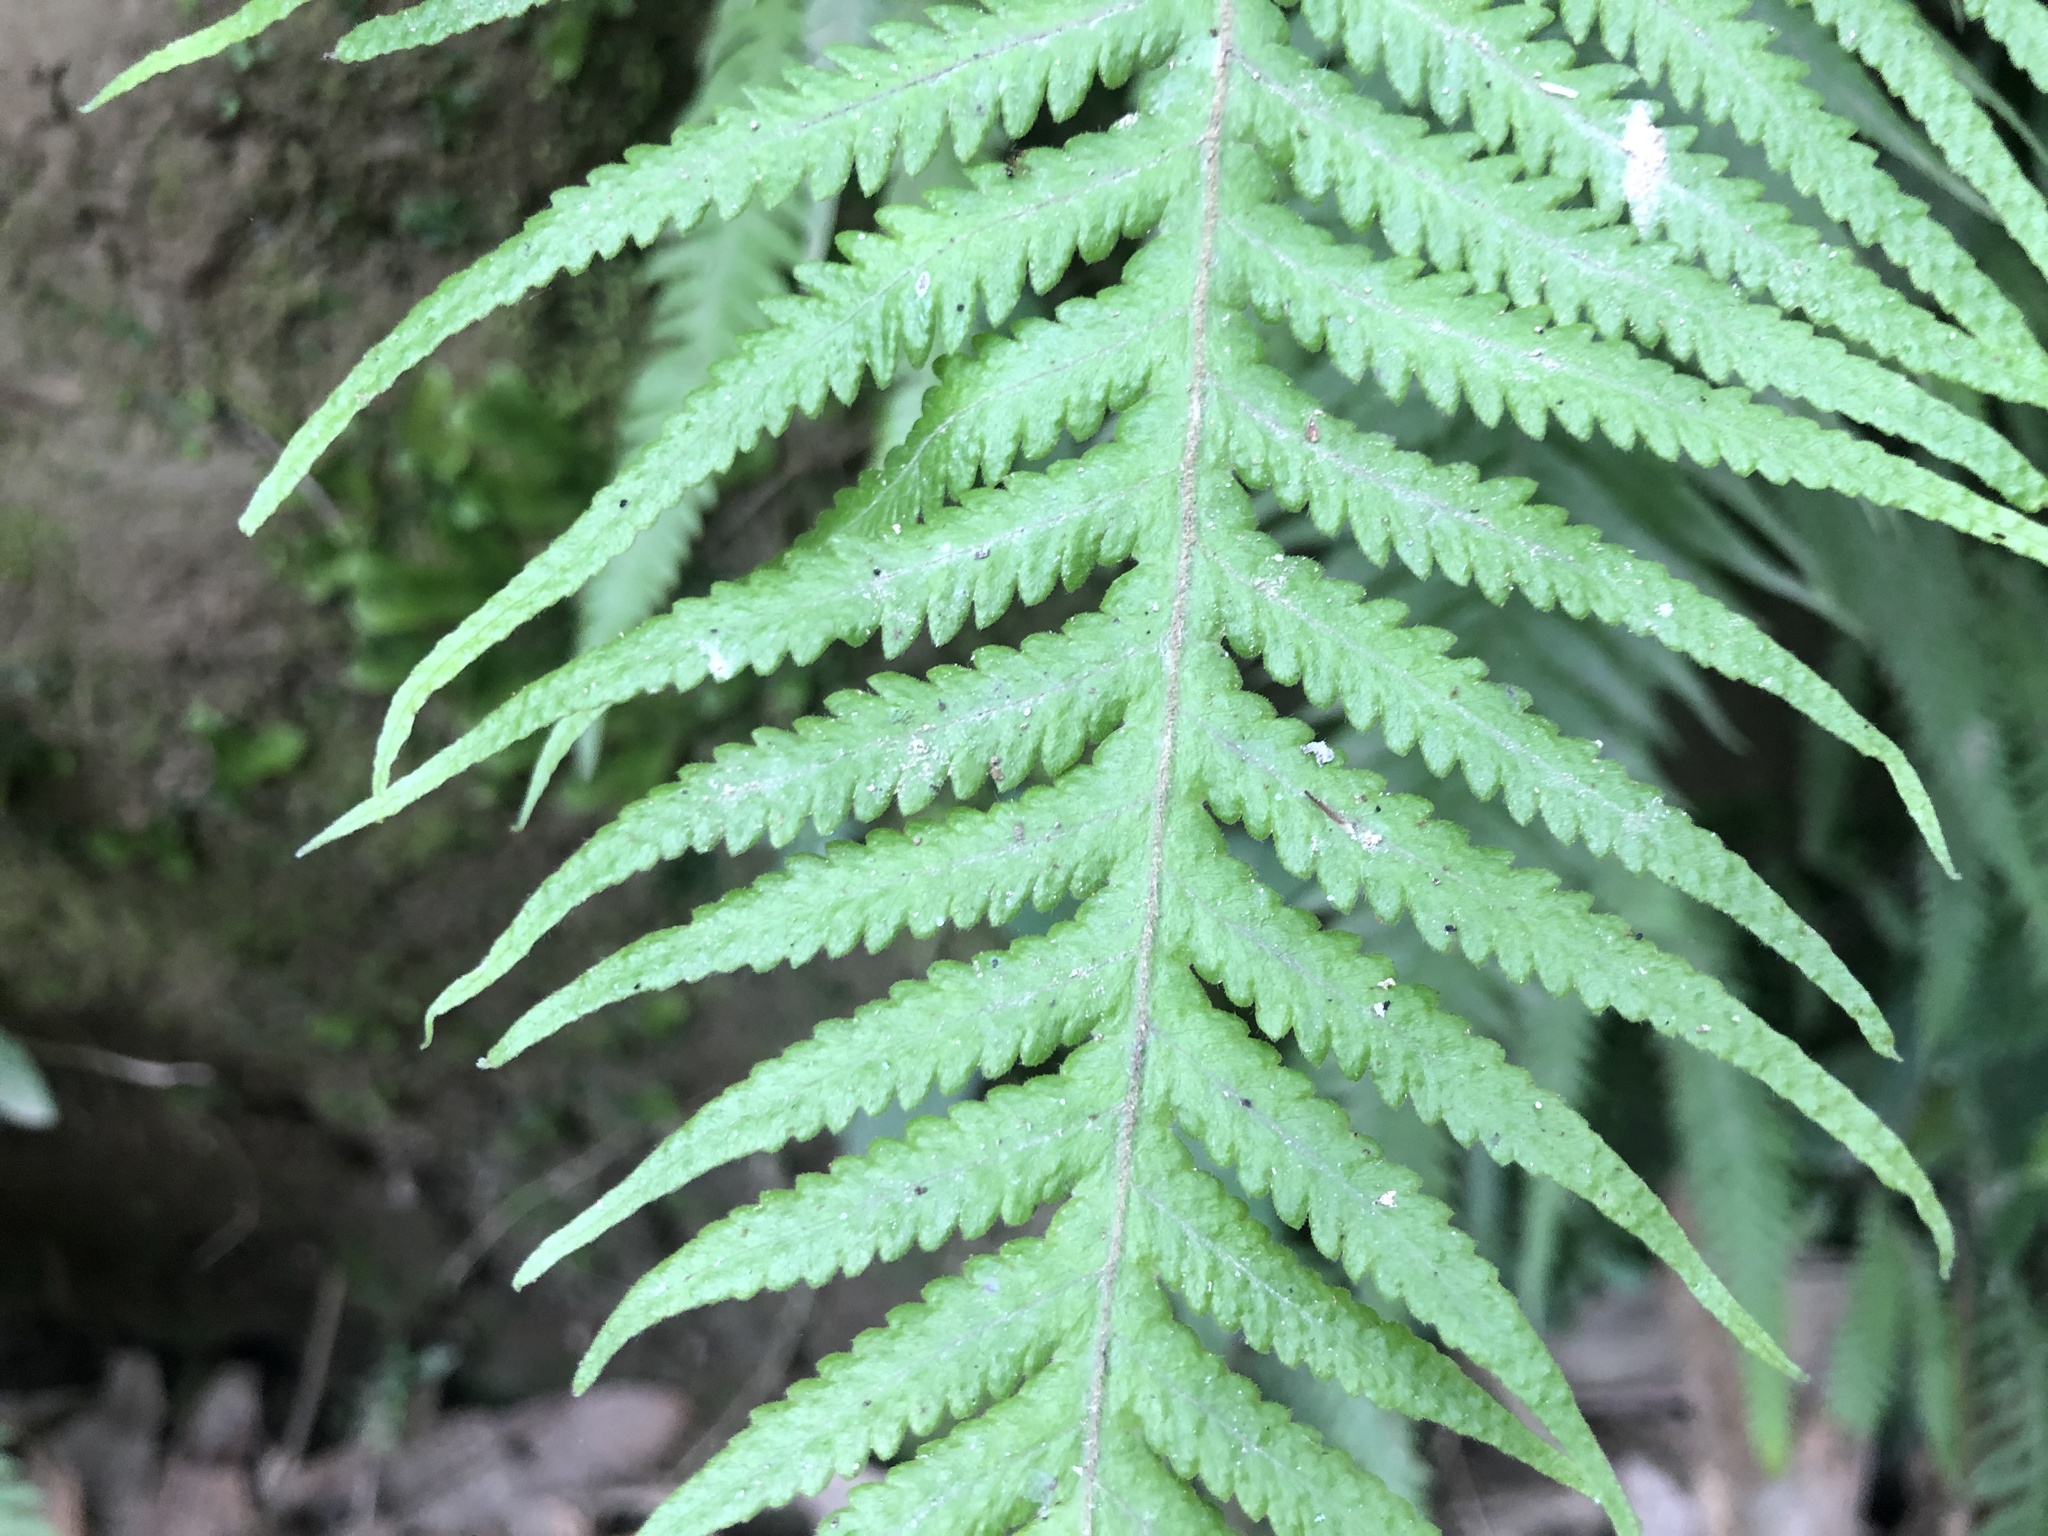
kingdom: Plantae
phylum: Tracheophyta
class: Polypodiopsida
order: Polypodiales
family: Thelypteridaceae
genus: Phegopteris
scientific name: Phegopteris decursive-pinnata
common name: Japanese beech fern
